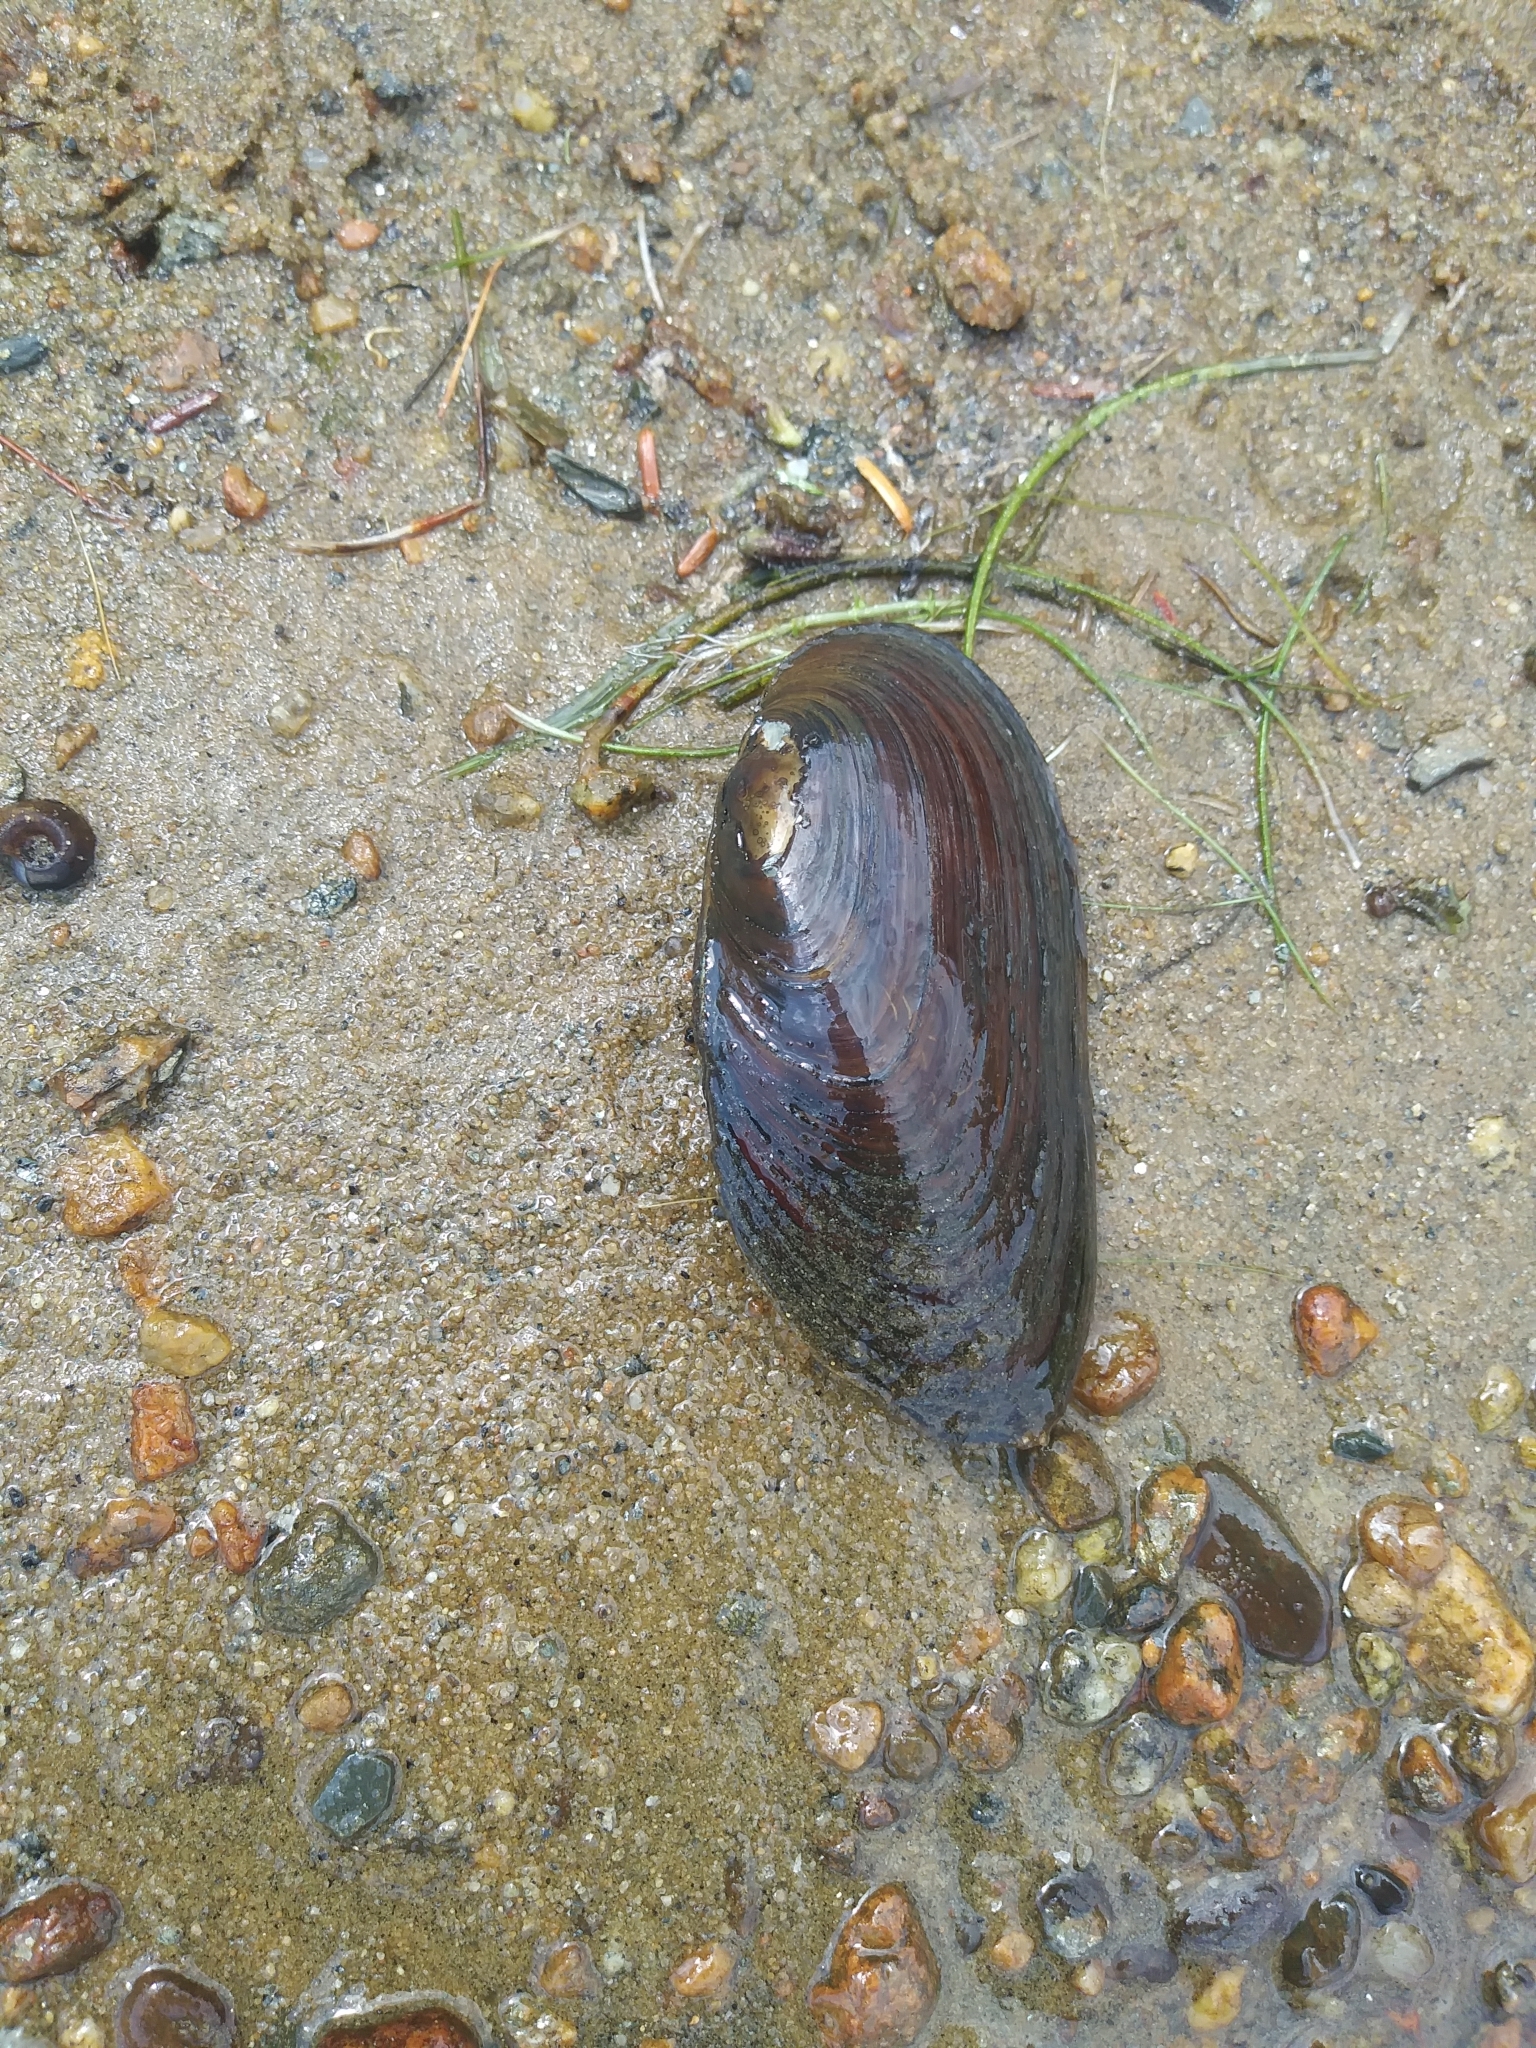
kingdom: Animalia
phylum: Mollusca
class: Bivalvia
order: Unionida
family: Unionidae
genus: Elliptio
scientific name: Elliptio complanata
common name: Eastern elliptio
